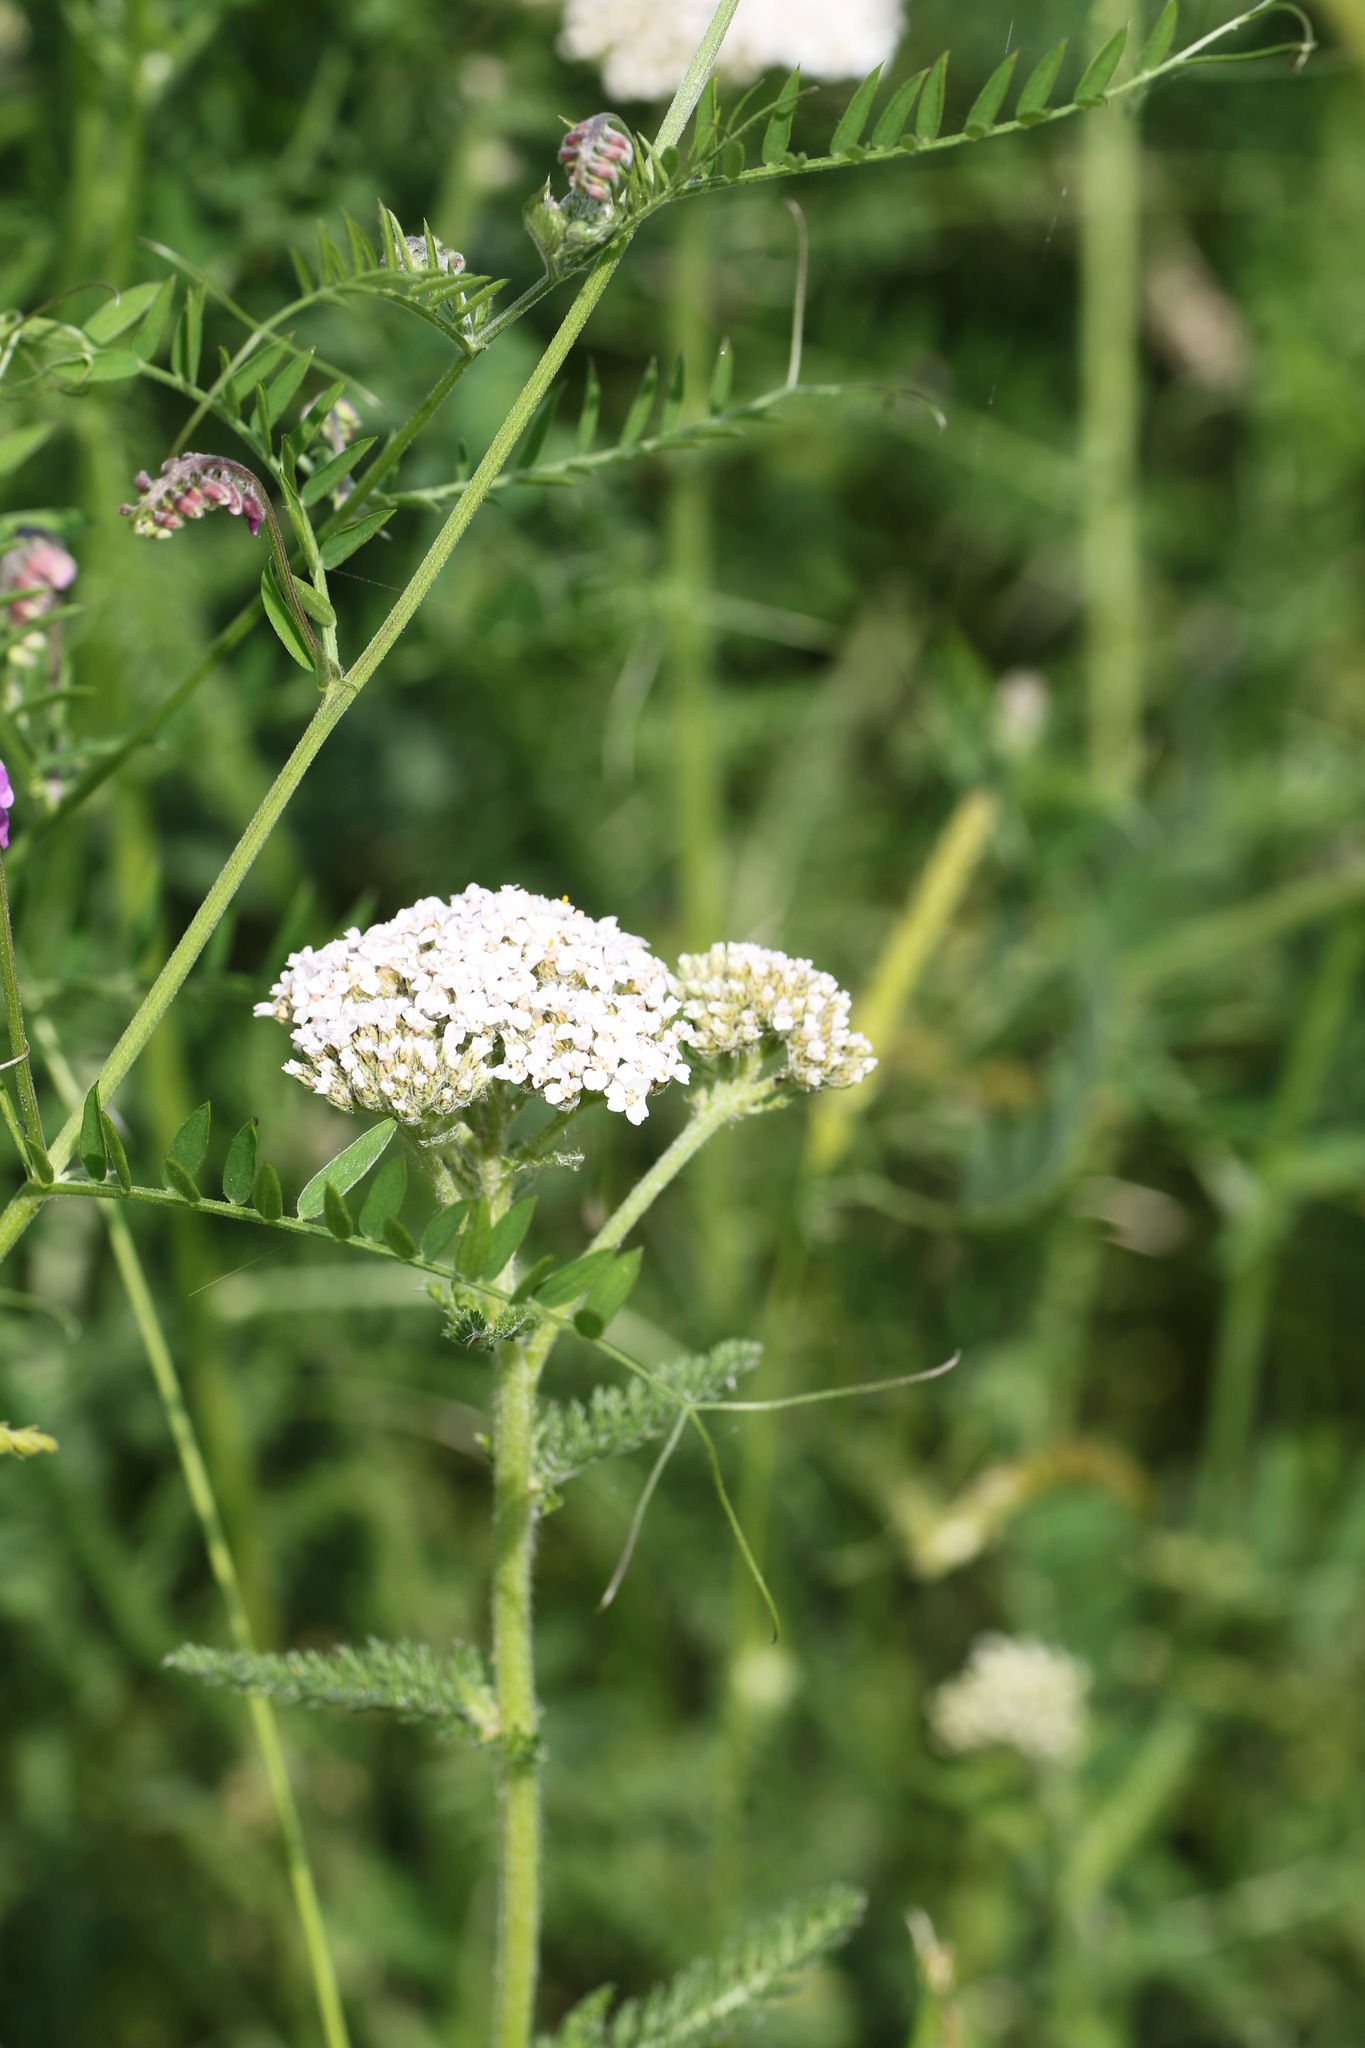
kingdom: Plantae
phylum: Tracheophyta
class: Magnoliopsida
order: Asterales
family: Asteraceae
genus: Achillea
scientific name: Achillea millefolium
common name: Yarrow
